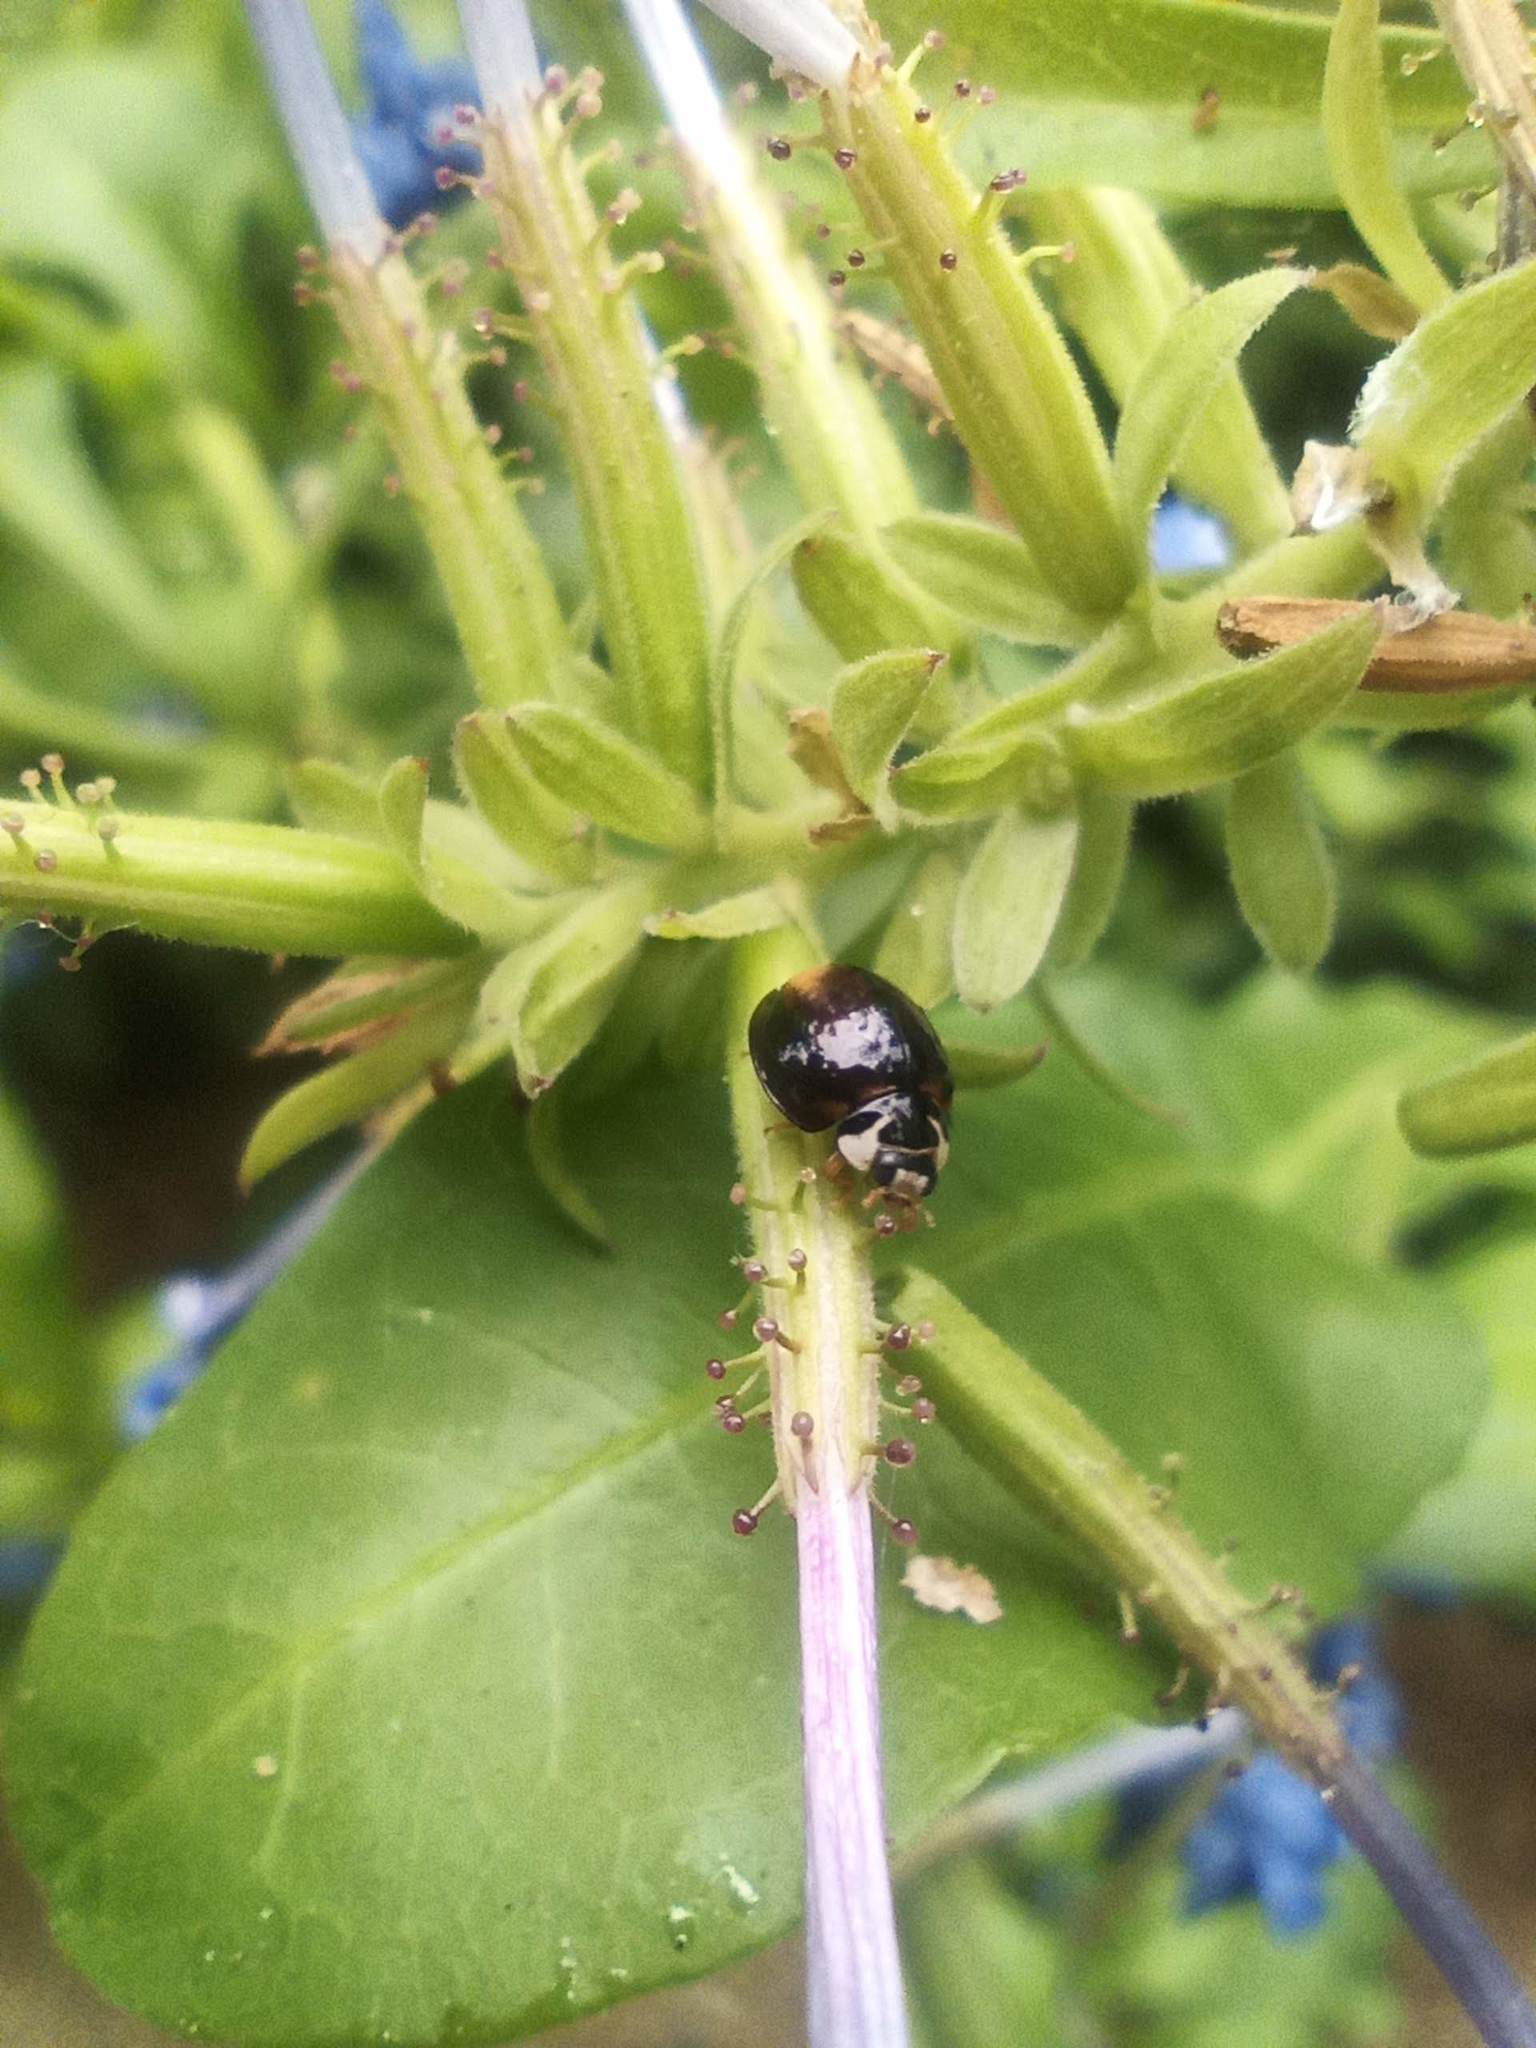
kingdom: Animalia
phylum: Arthropoda
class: Insecta
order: Coleoptera
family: Coccinellidae
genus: Cheilomenes
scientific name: Cheilomenes propinqua
